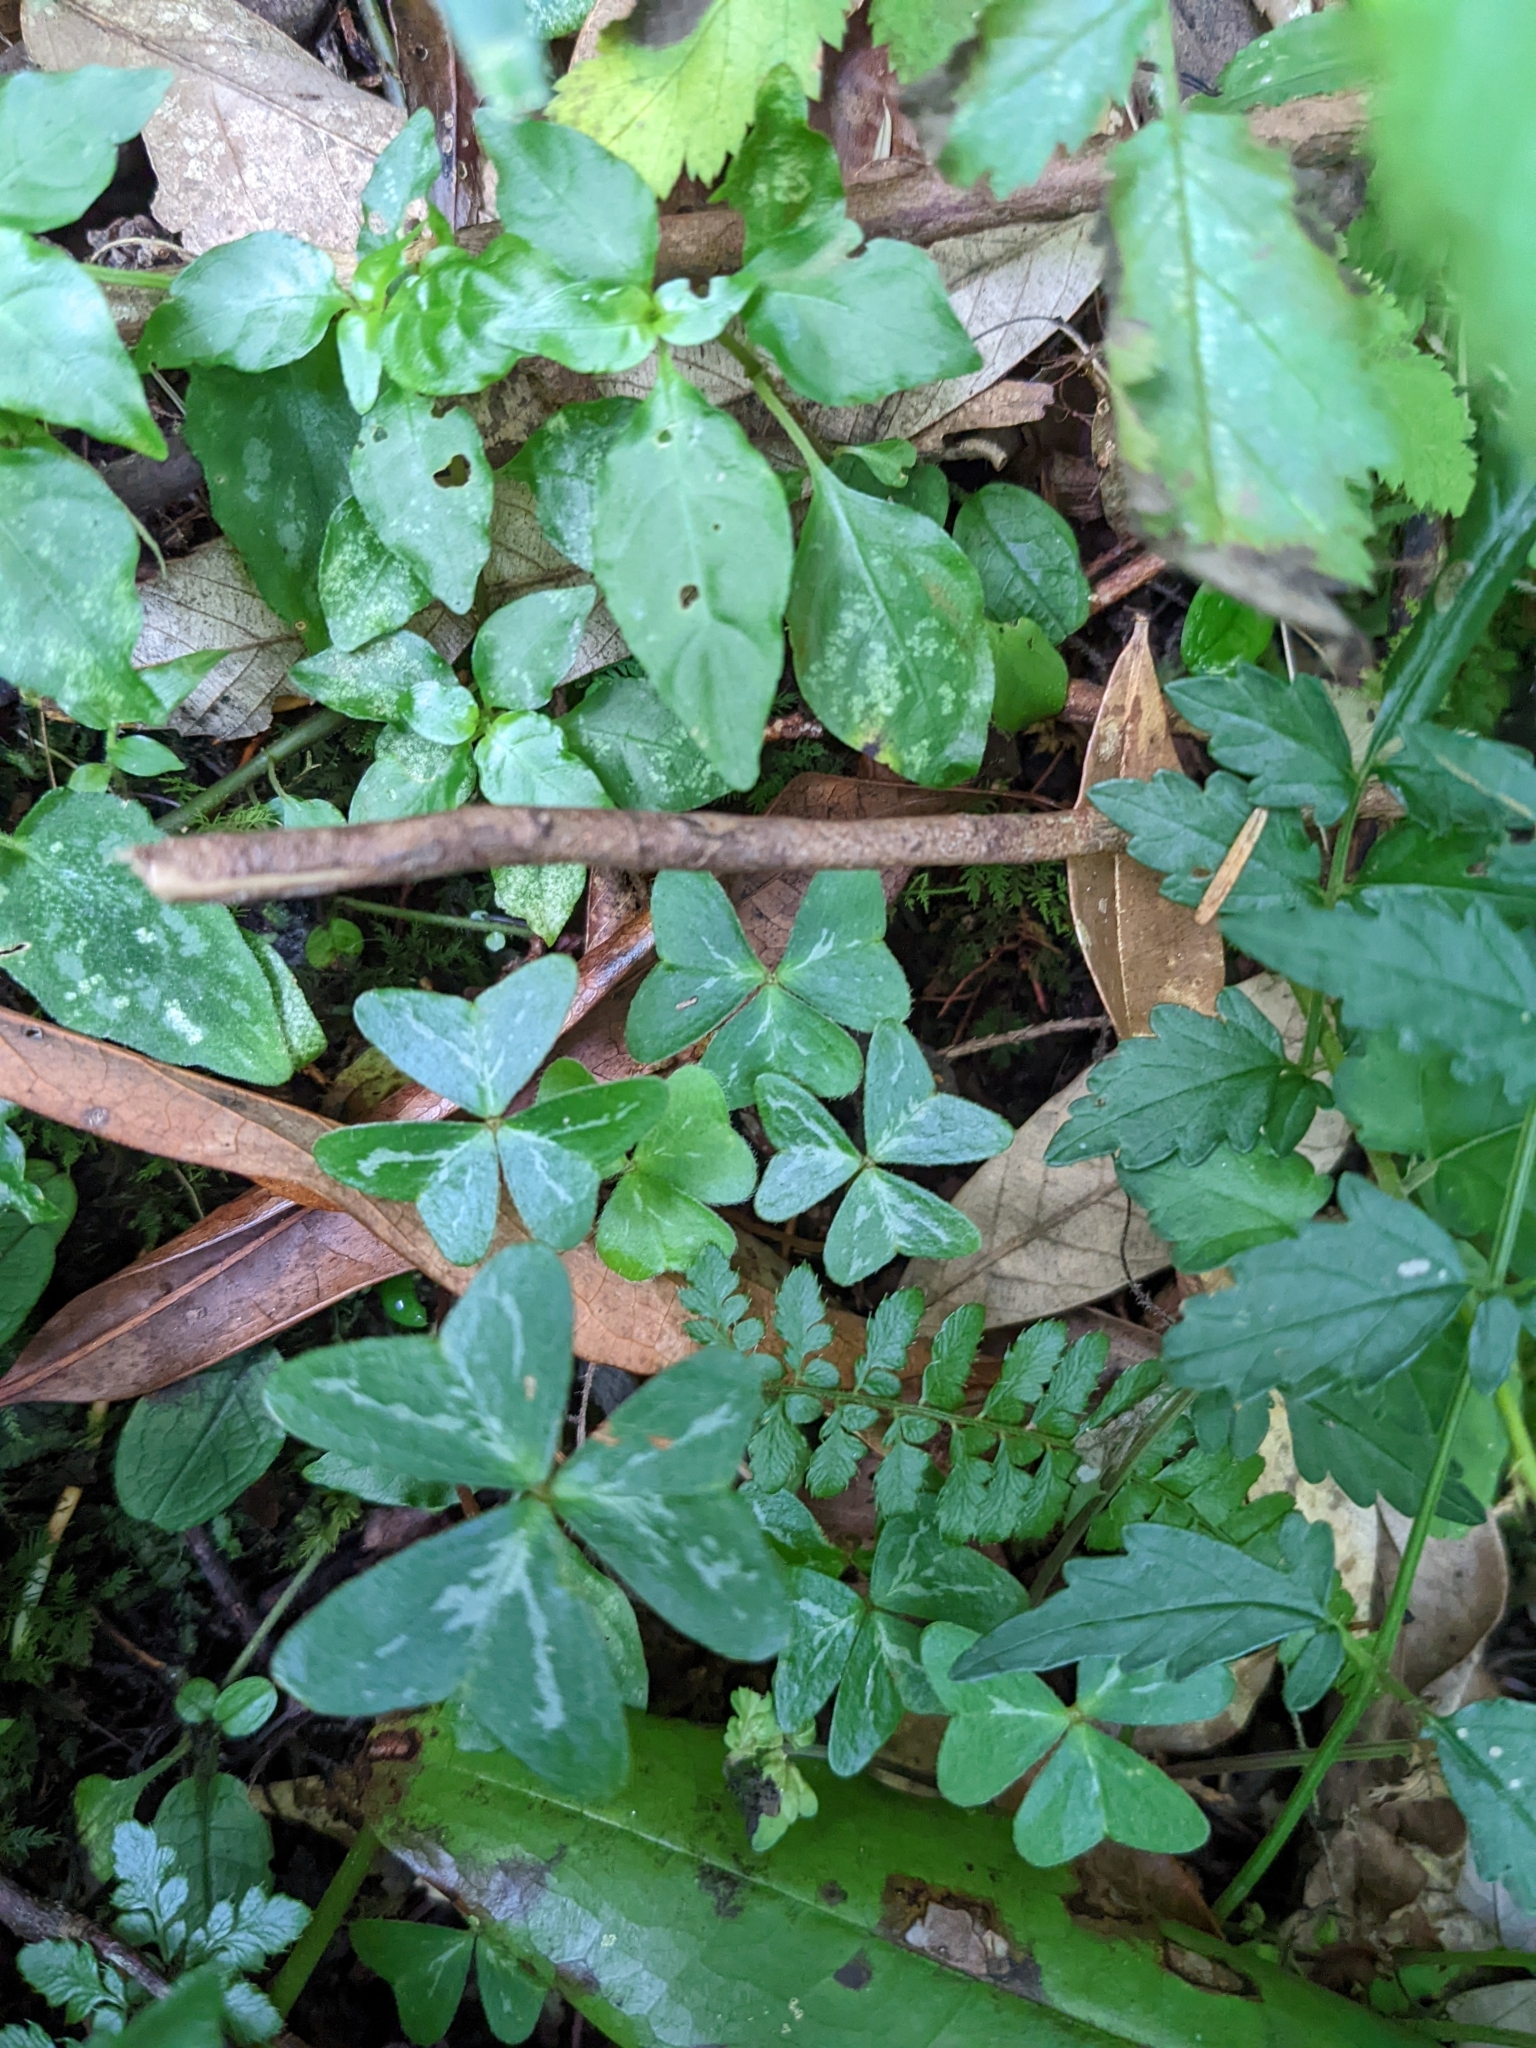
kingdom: Plantae
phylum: Tracheophyta
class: Magnoliopsida
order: Oxalidales
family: Oxalidaceae
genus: Oxalis
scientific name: Oxalis griffithii
